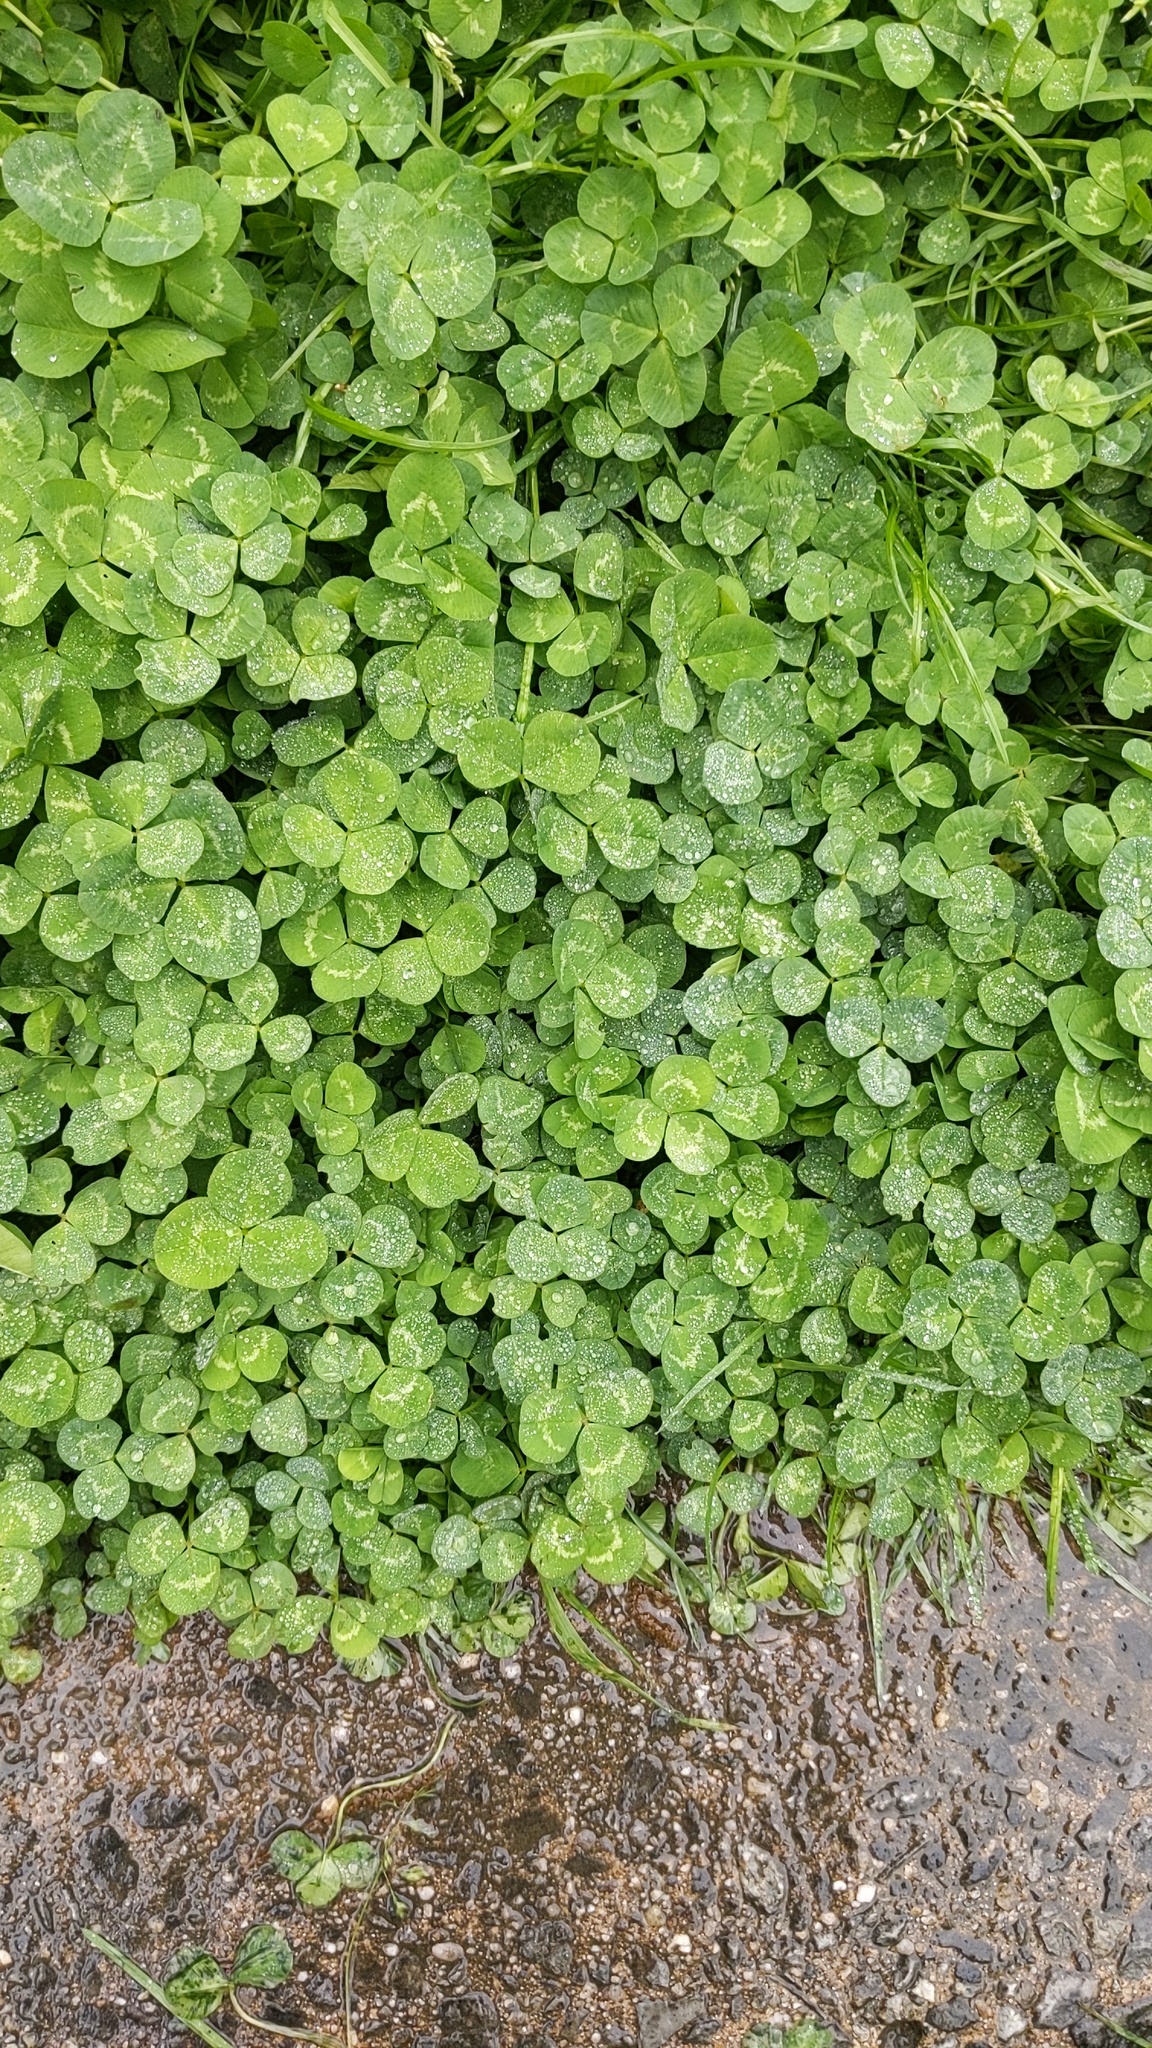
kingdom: Plantae
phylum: Tracheophyta
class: Magnoliopsida
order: Fabales
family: Fabaceae
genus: Trifolium
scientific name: Trifolium repens
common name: White clover
